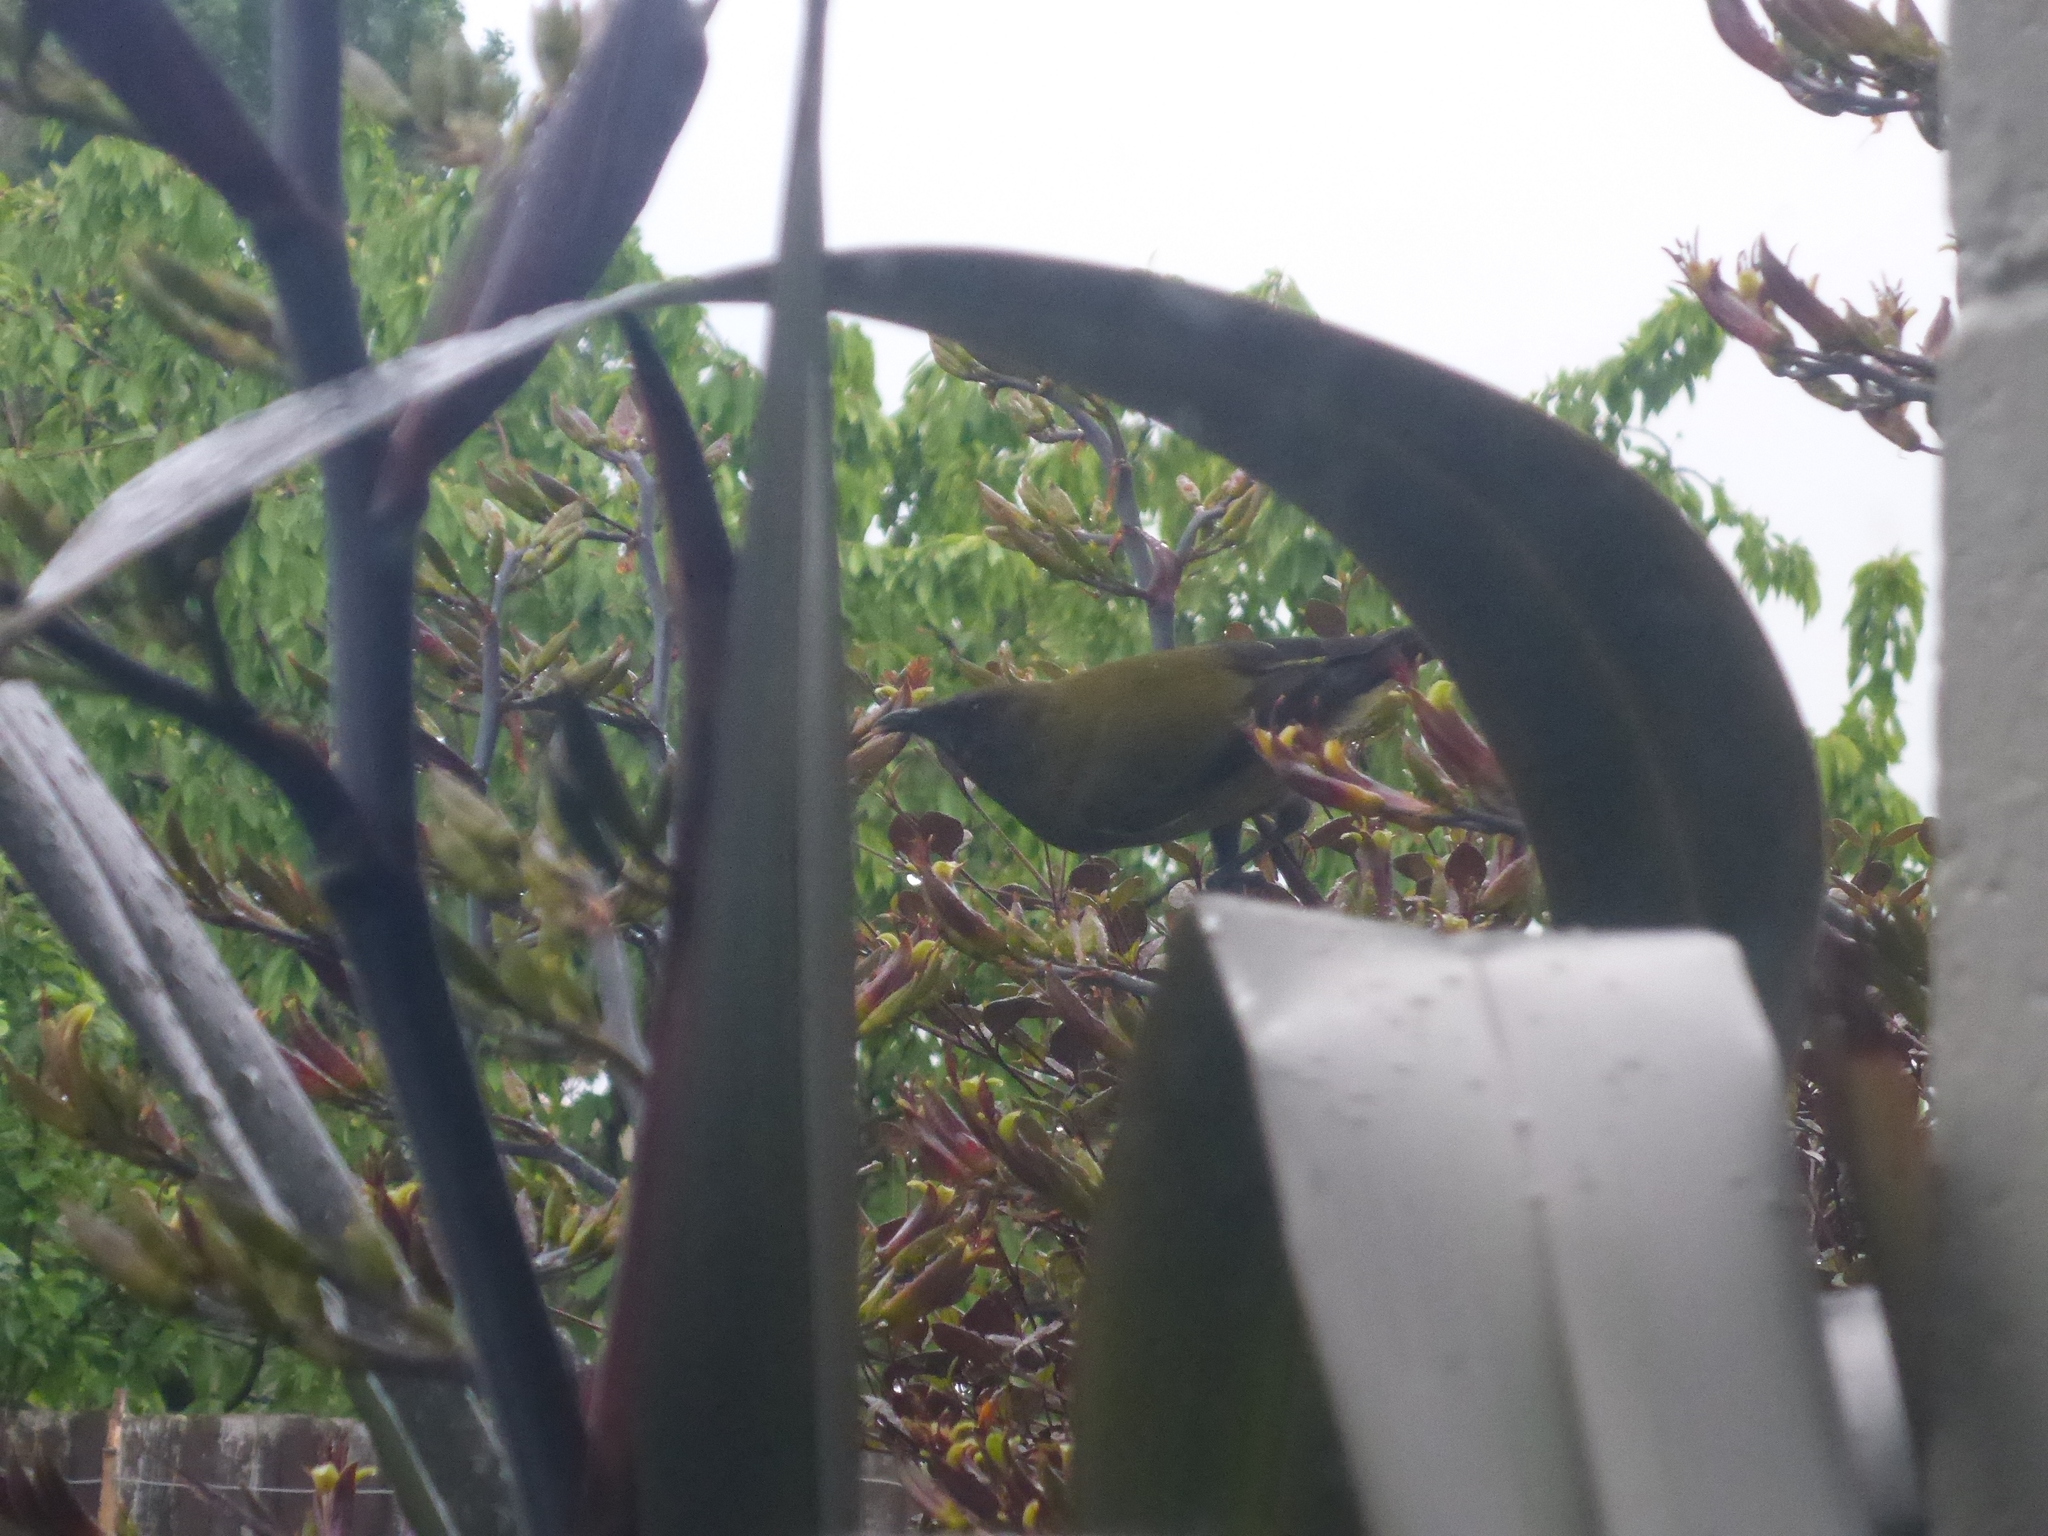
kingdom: Animalia
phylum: Chordata
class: Aves
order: Passeriformes
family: Meliphagidae
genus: Anthornis
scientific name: Anthornis melanura
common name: New zealand bellbird
